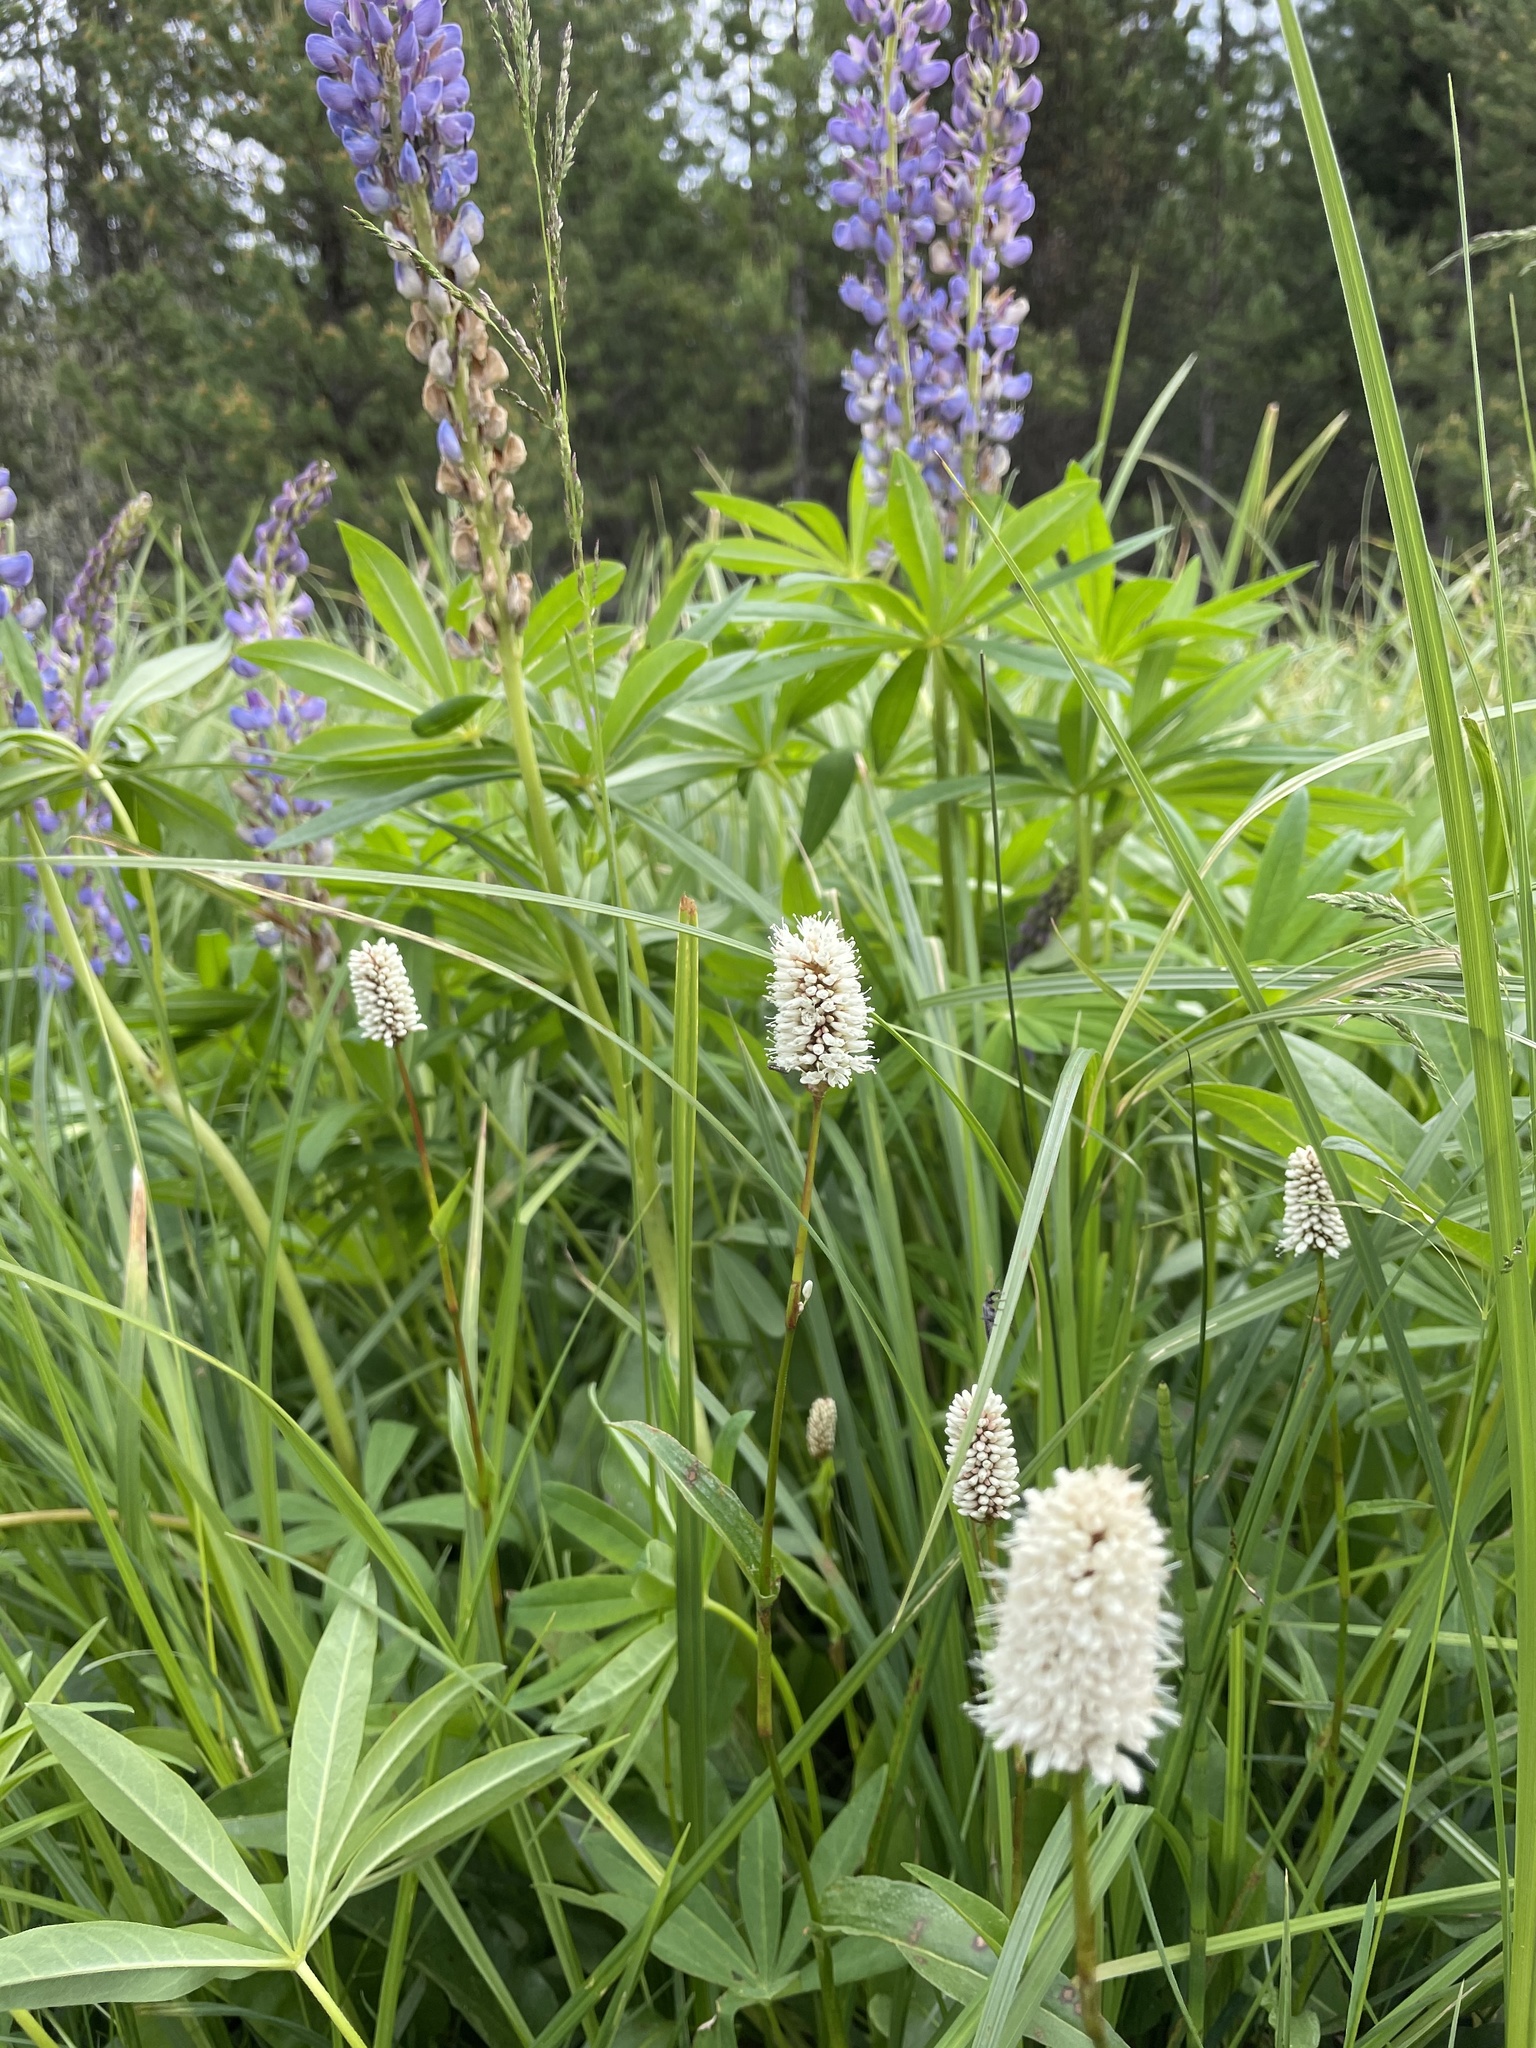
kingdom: Plantae
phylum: Tracheophyta
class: Magnoliopsida
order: Caryophyllales
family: Polygonaceae
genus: Bistorta
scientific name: Bistorta bistortoides
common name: American bistort
